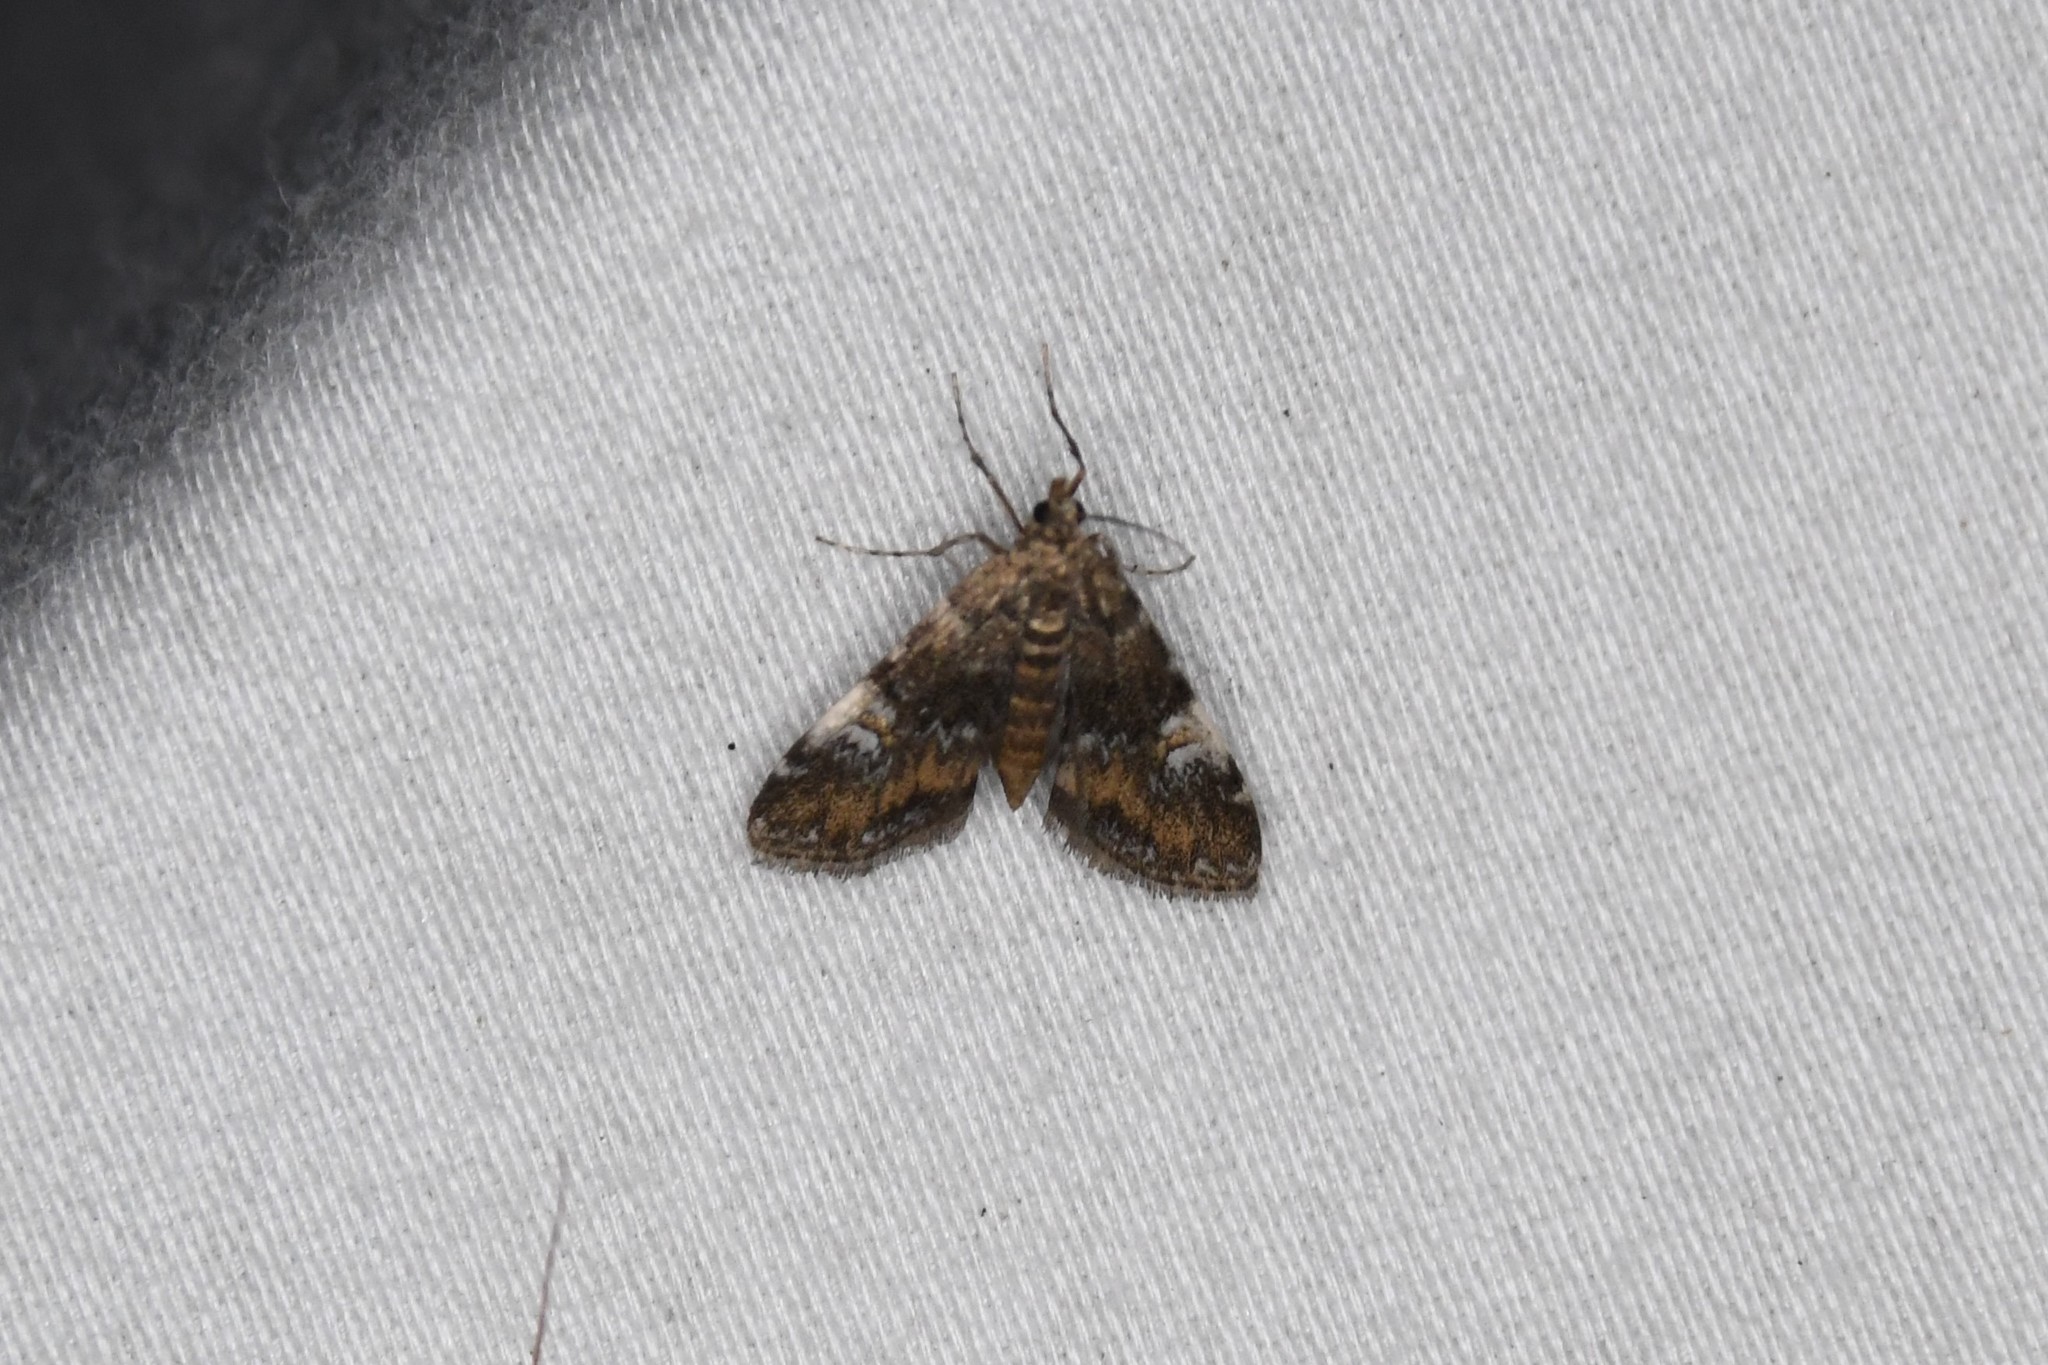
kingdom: Animalia
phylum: Arthropoda
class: Insecta
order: Lepidoptera
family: Crambidae
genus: Elophila
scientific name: Elophila obliteralis
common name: Waterlily leafcutter moth
